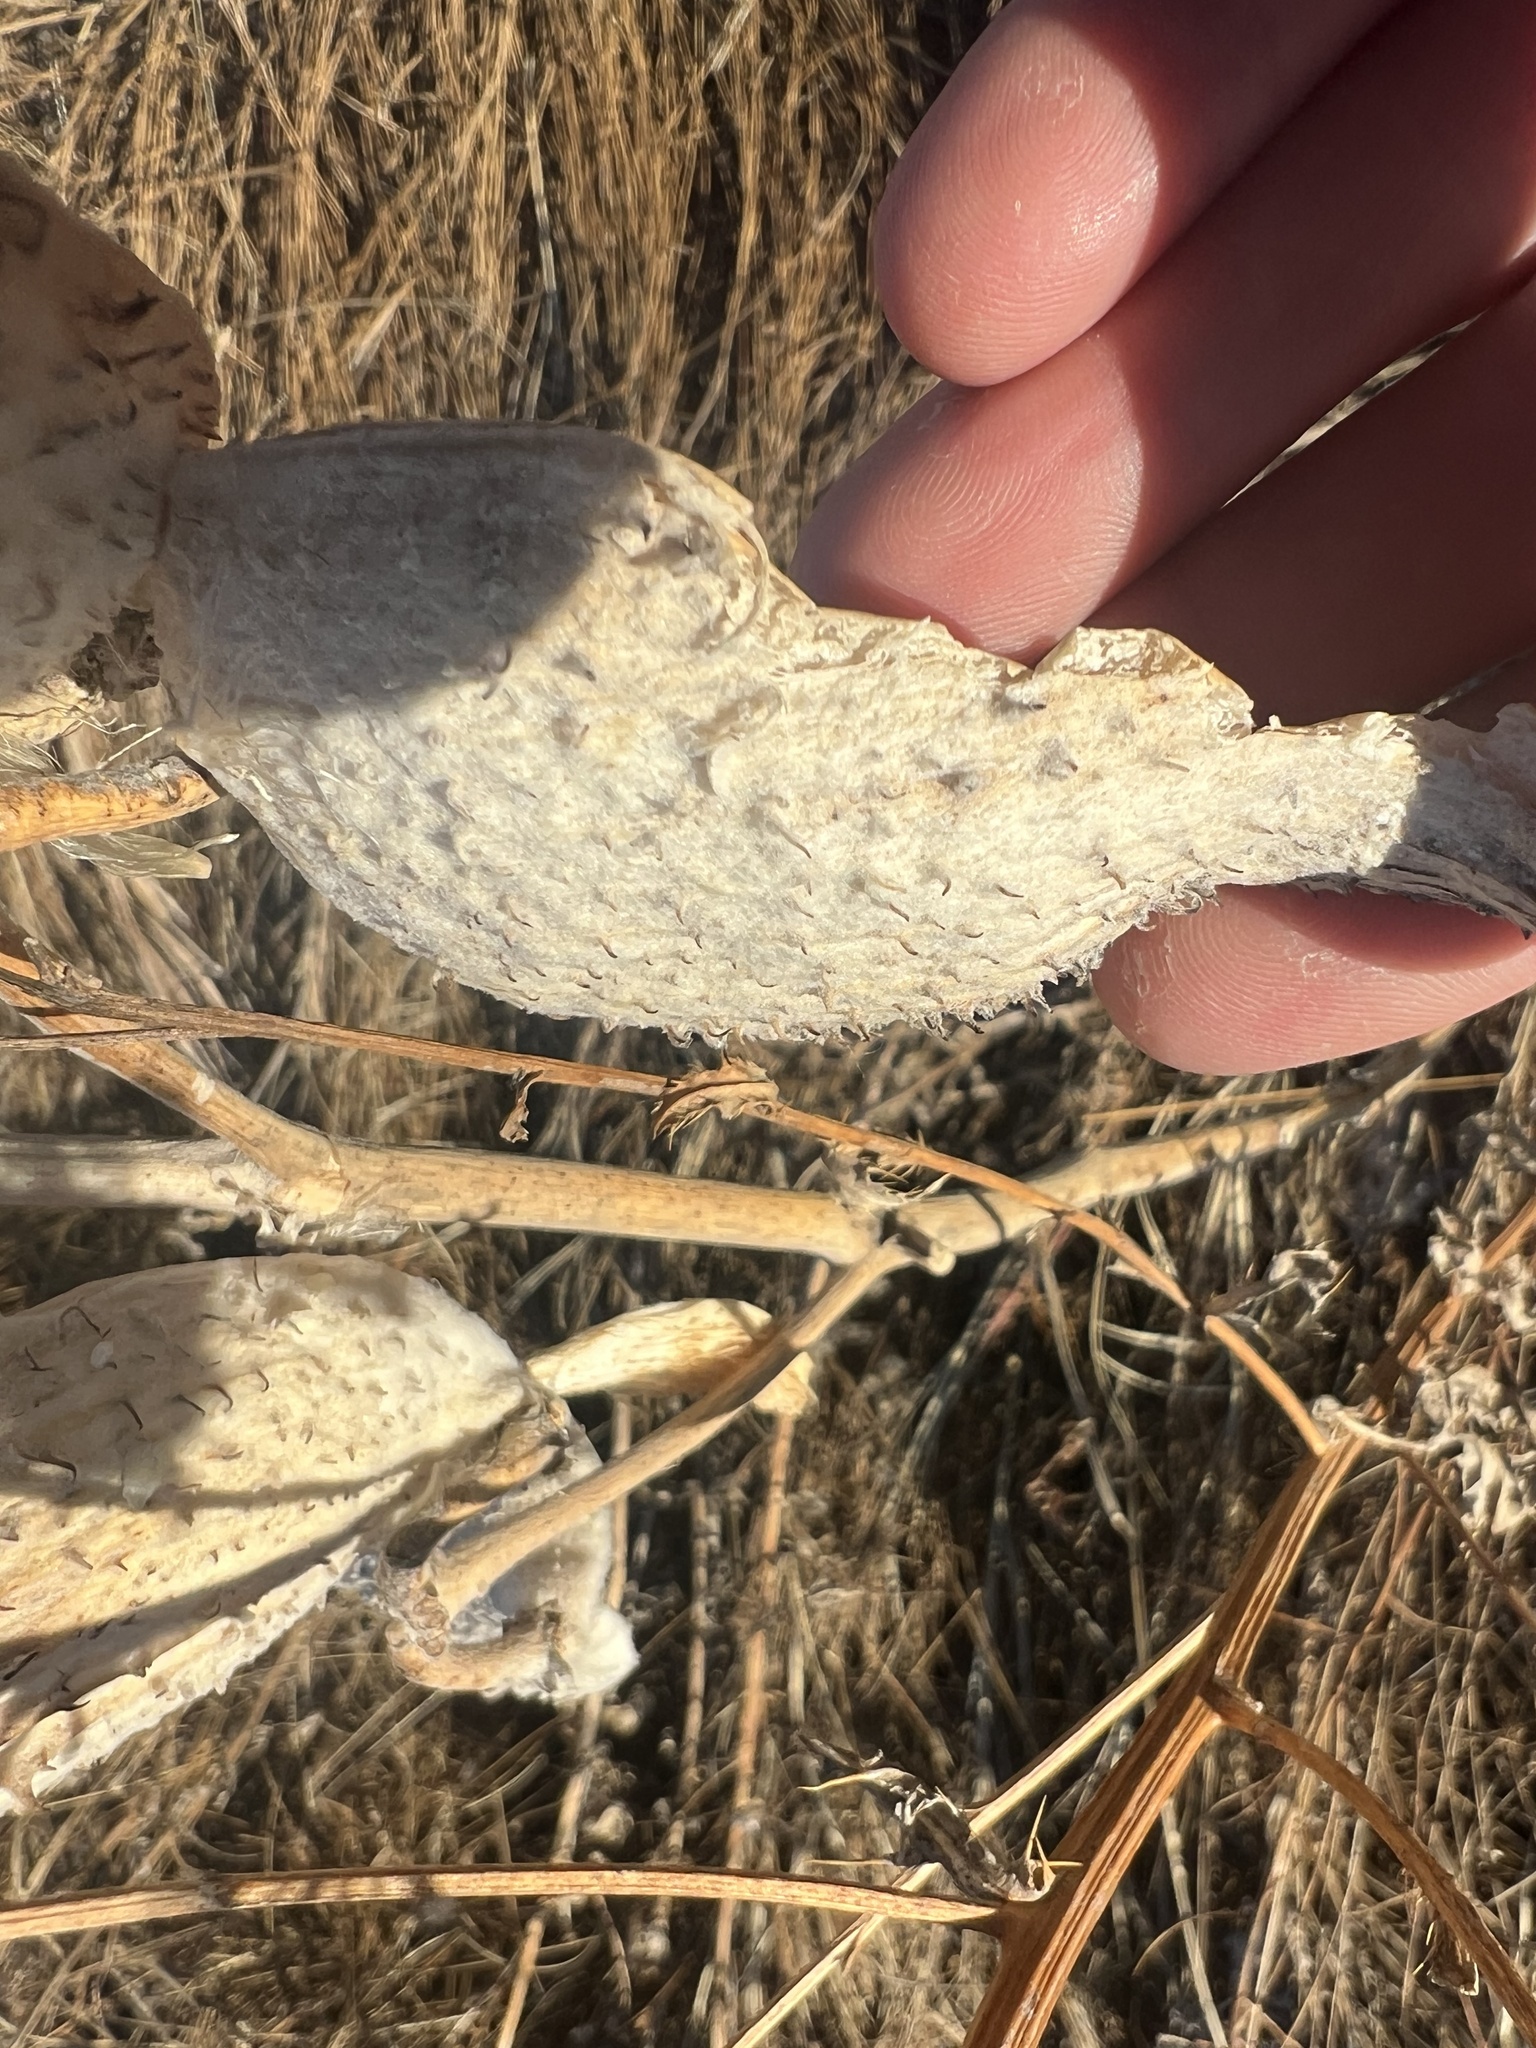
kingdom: Plantae
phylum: Tracheophyta
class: Magnoliopsida
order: Gentianales
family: Apocynaceae
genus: Asclepias
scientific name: Asclepias speciosa
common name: Showy milkweed
